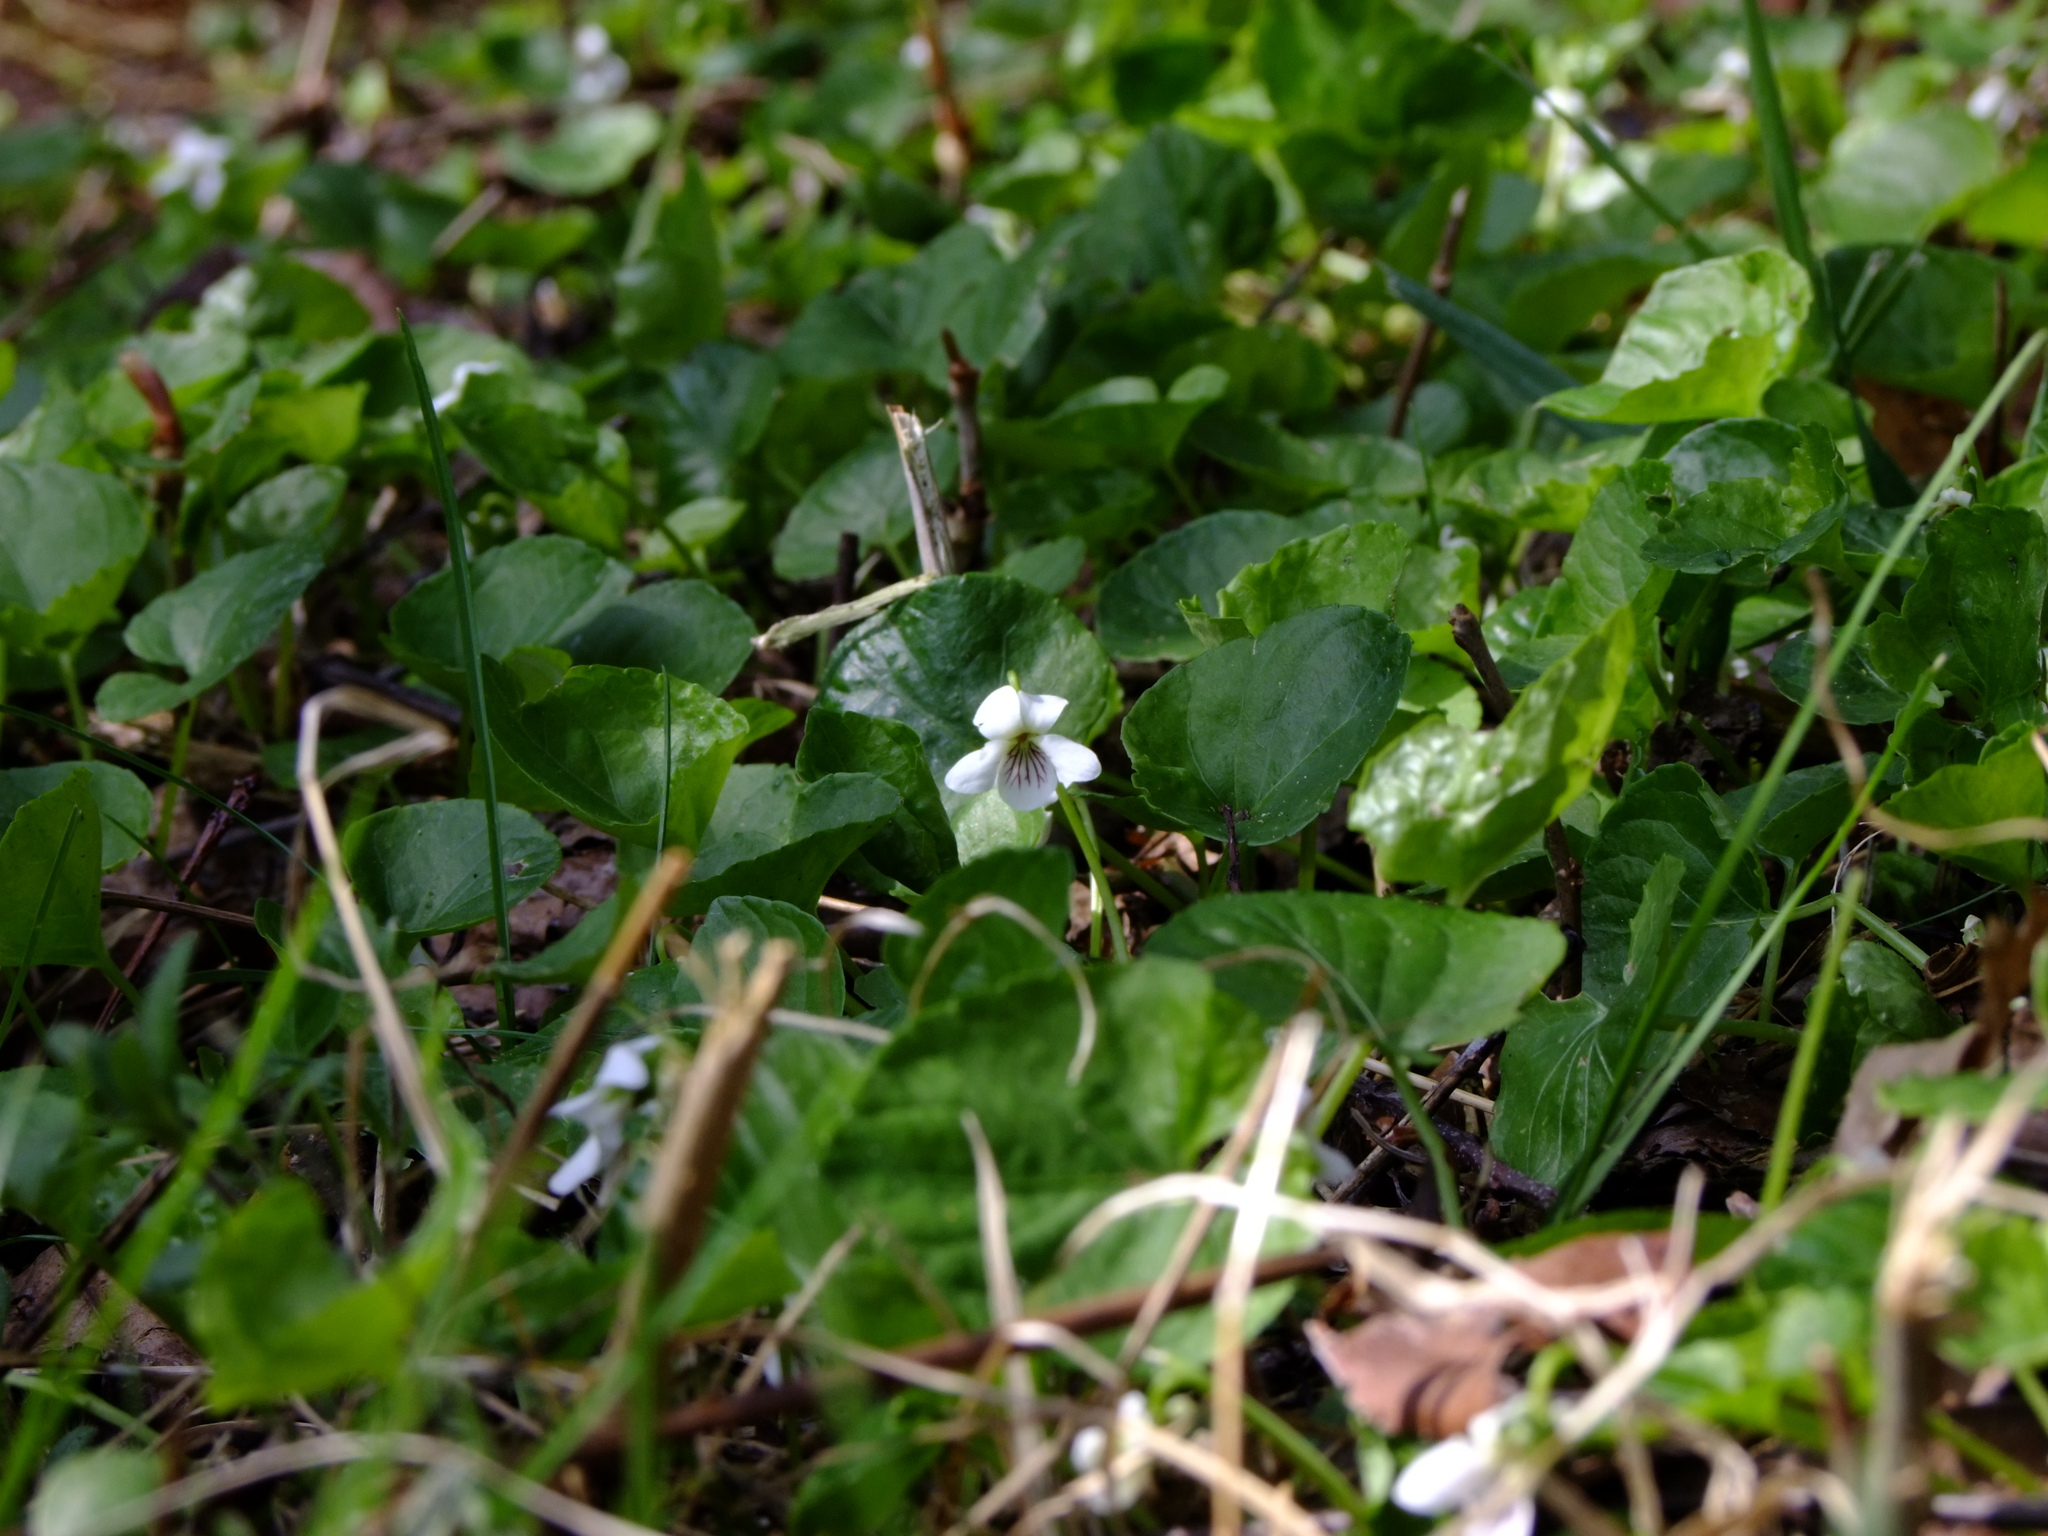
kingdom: Plantae
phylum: Tracheophyta
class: Magnoliopsida
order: Malpighiales
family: Violaceae
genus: Viola
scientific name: Viola blanda
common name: Sweet white violet
